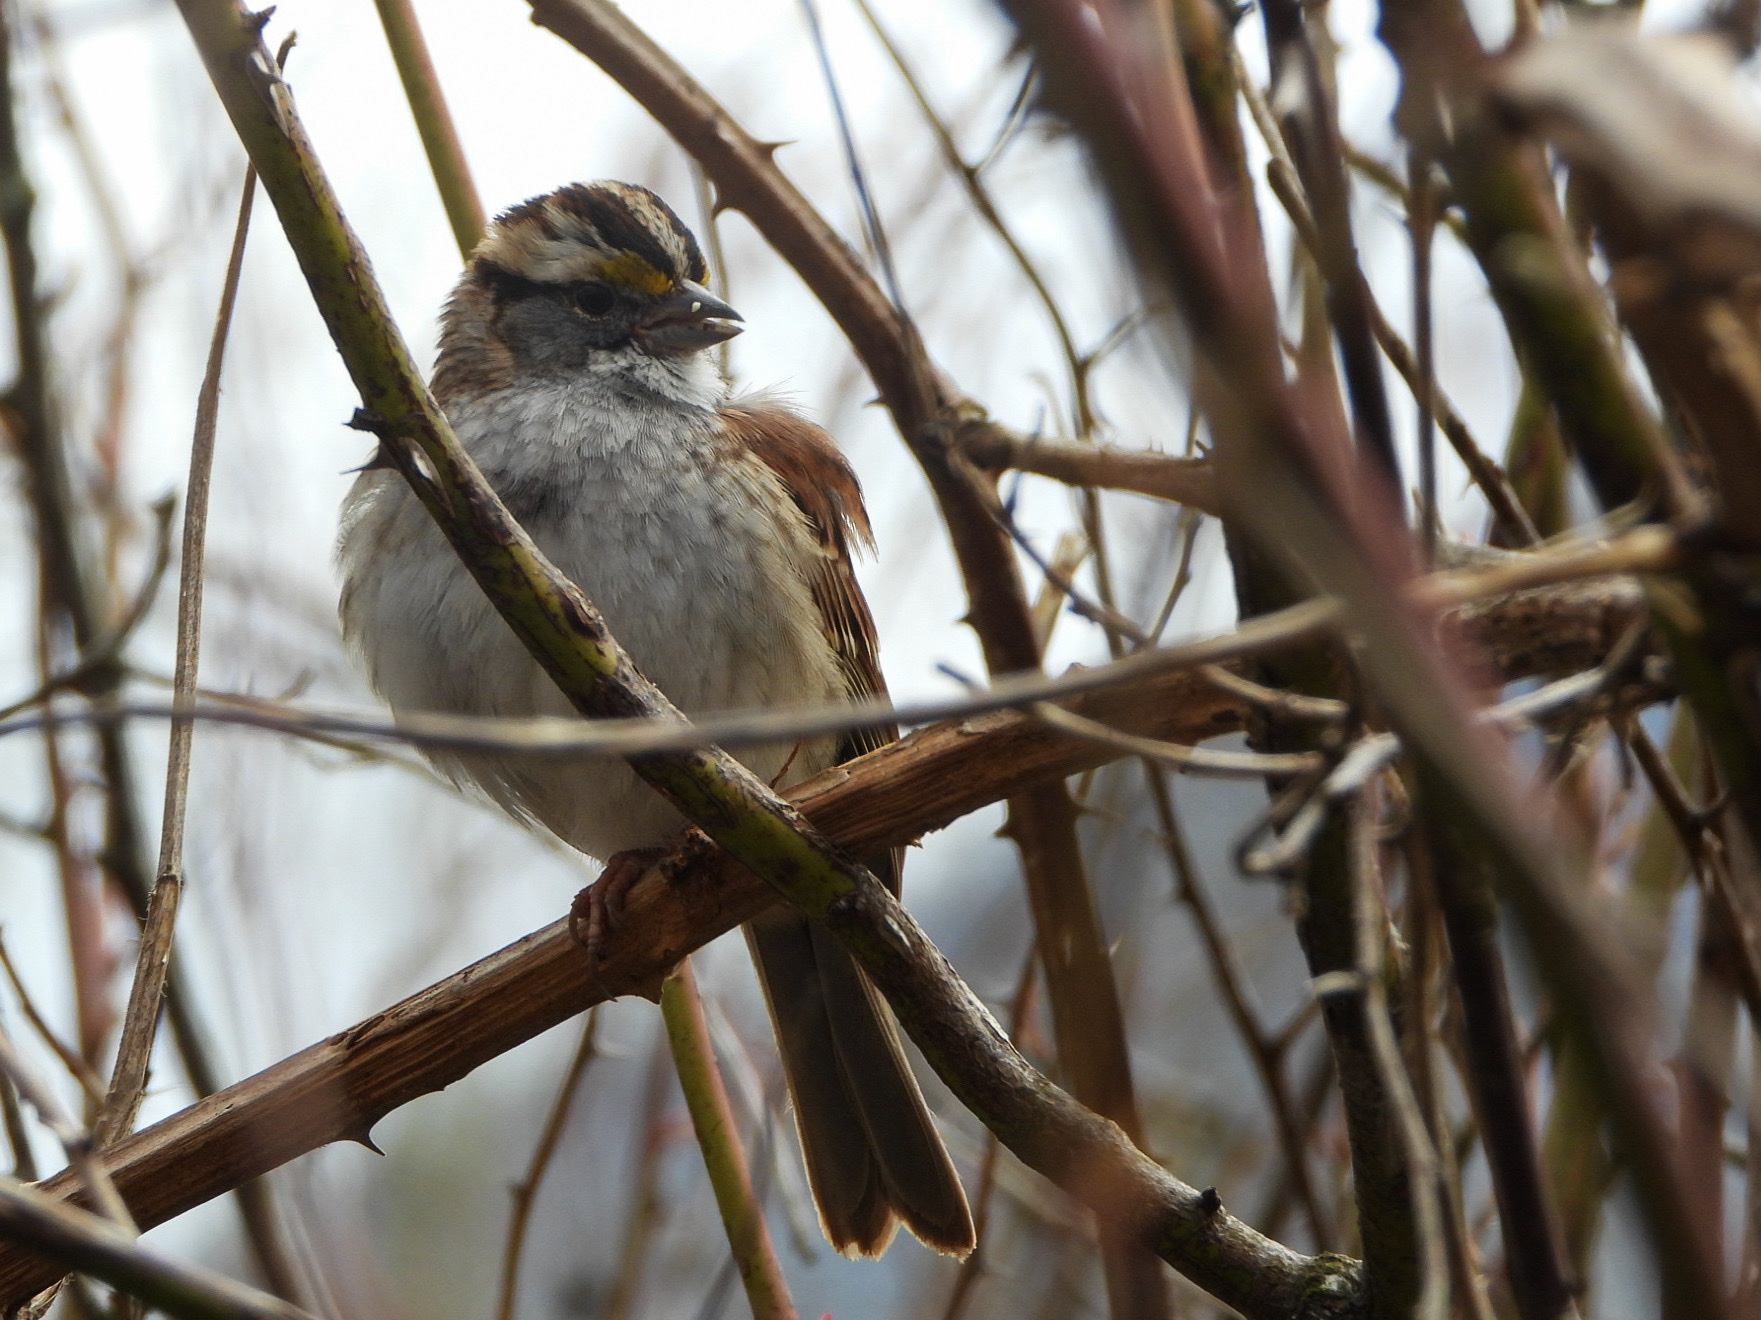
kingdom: Animalia
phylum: Chordata
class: Aves
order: Passeriformes
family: Passerellidae
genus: Zonotrichia
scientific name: Zonotrichia albicollis
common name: White-throated sparrow
